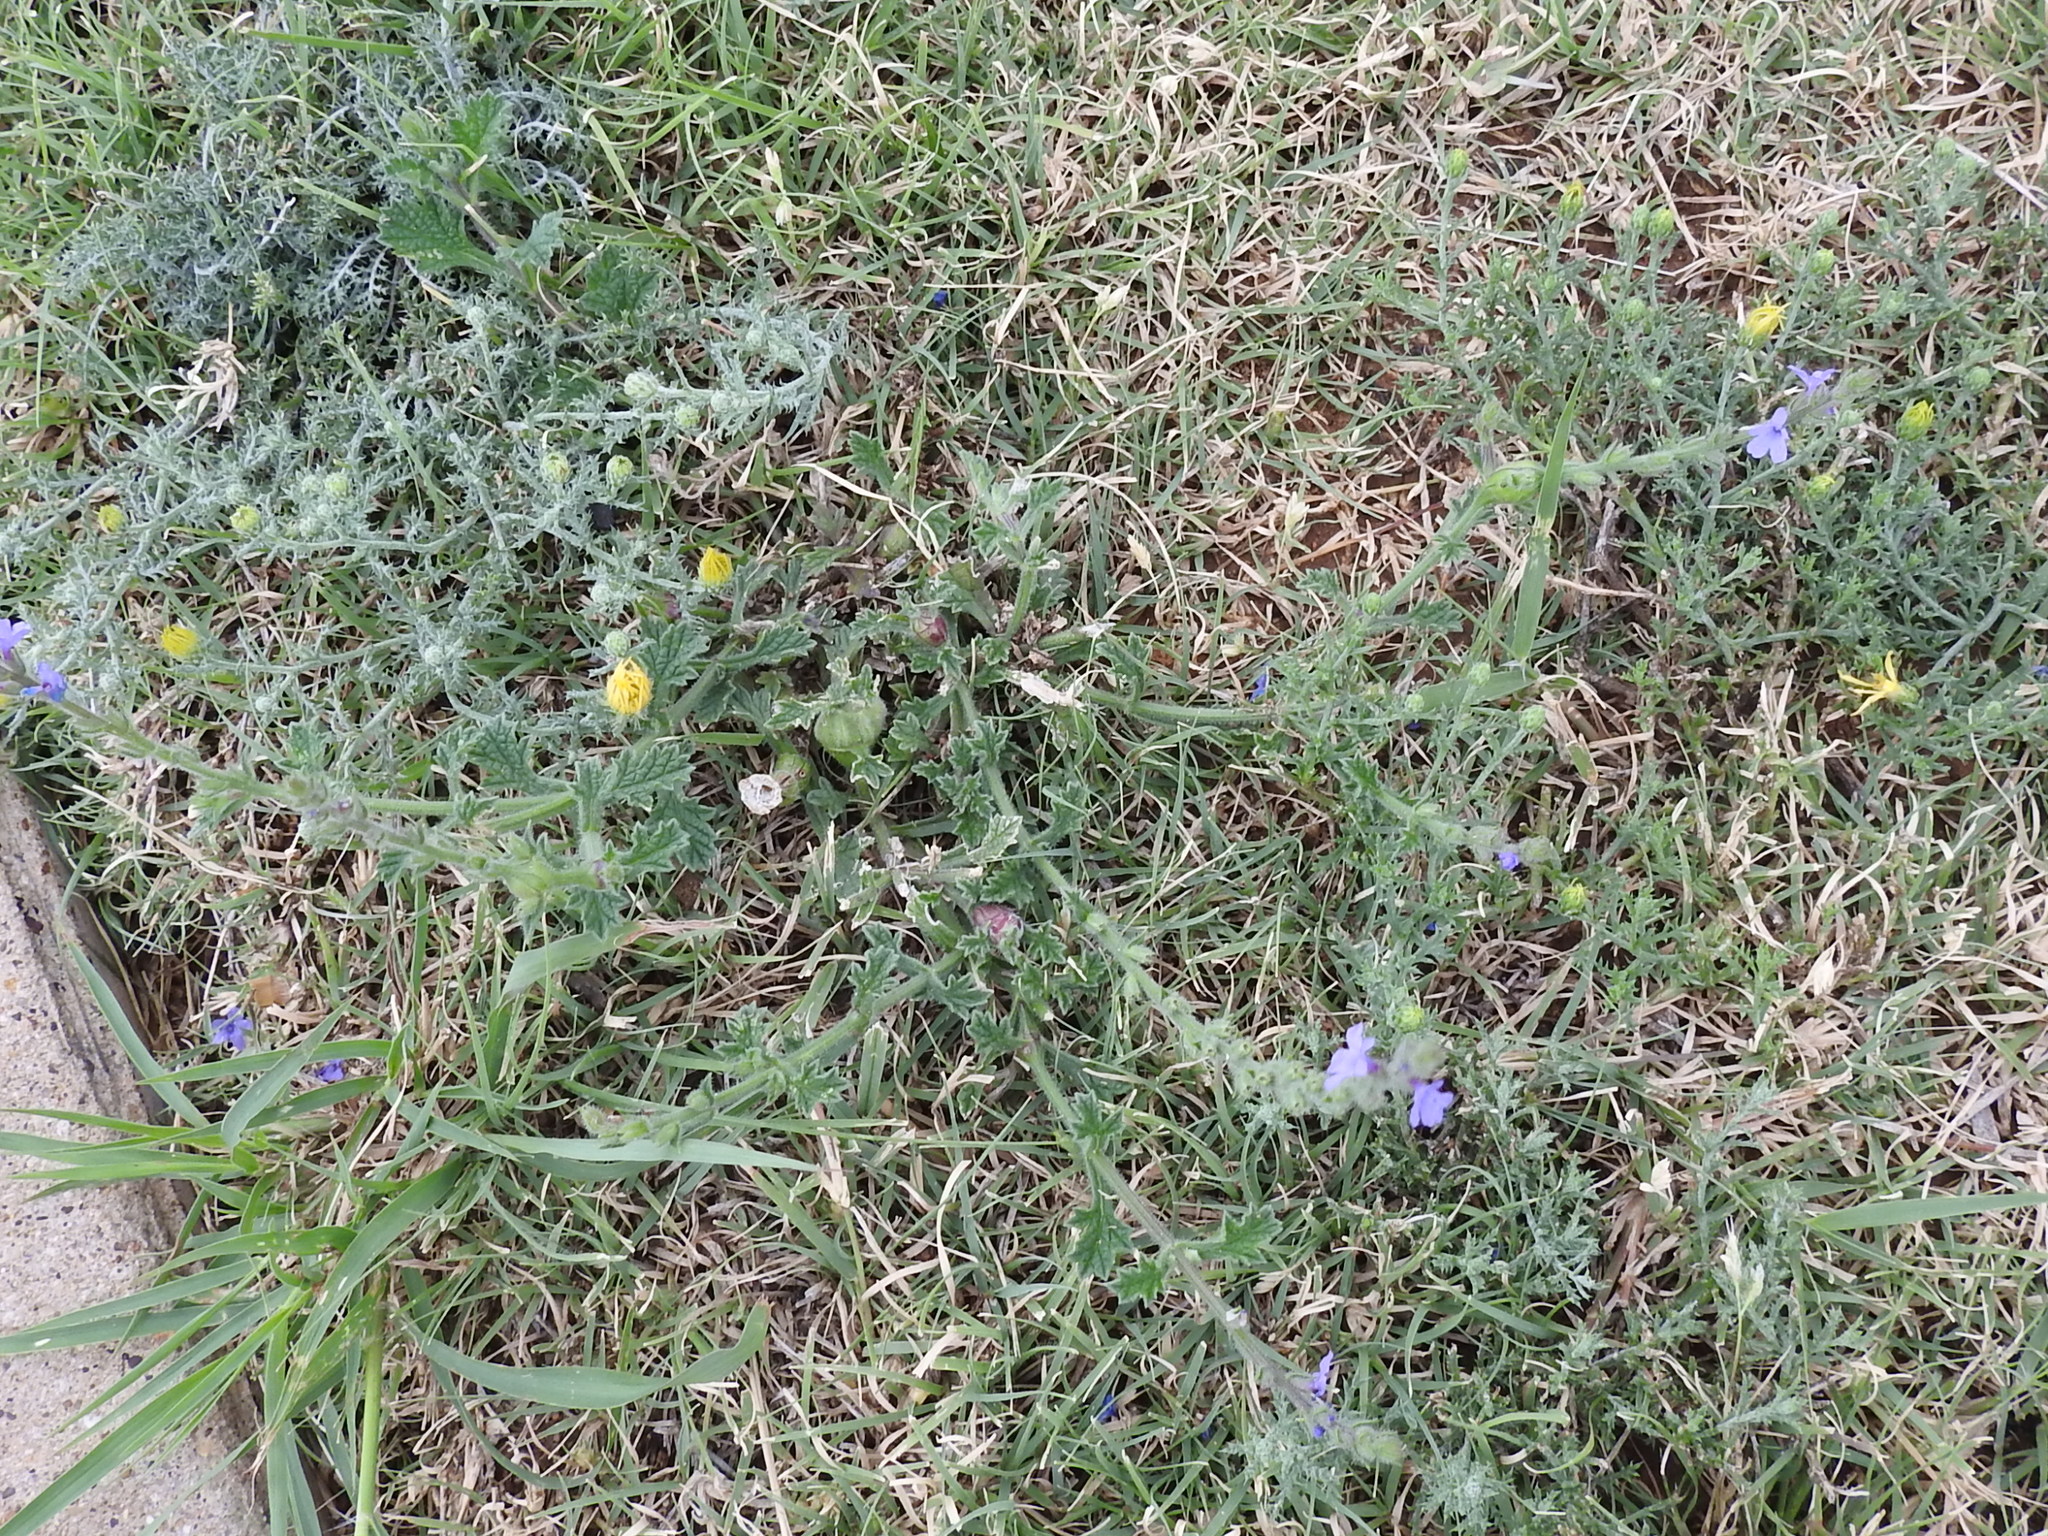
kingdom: Plantae
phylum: Tracheophyta
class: Magnoliopsida
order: Lamiales
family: Verbenaceae
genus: Verbena
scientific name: Verbena plicata
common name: Fan-leaf vervain
